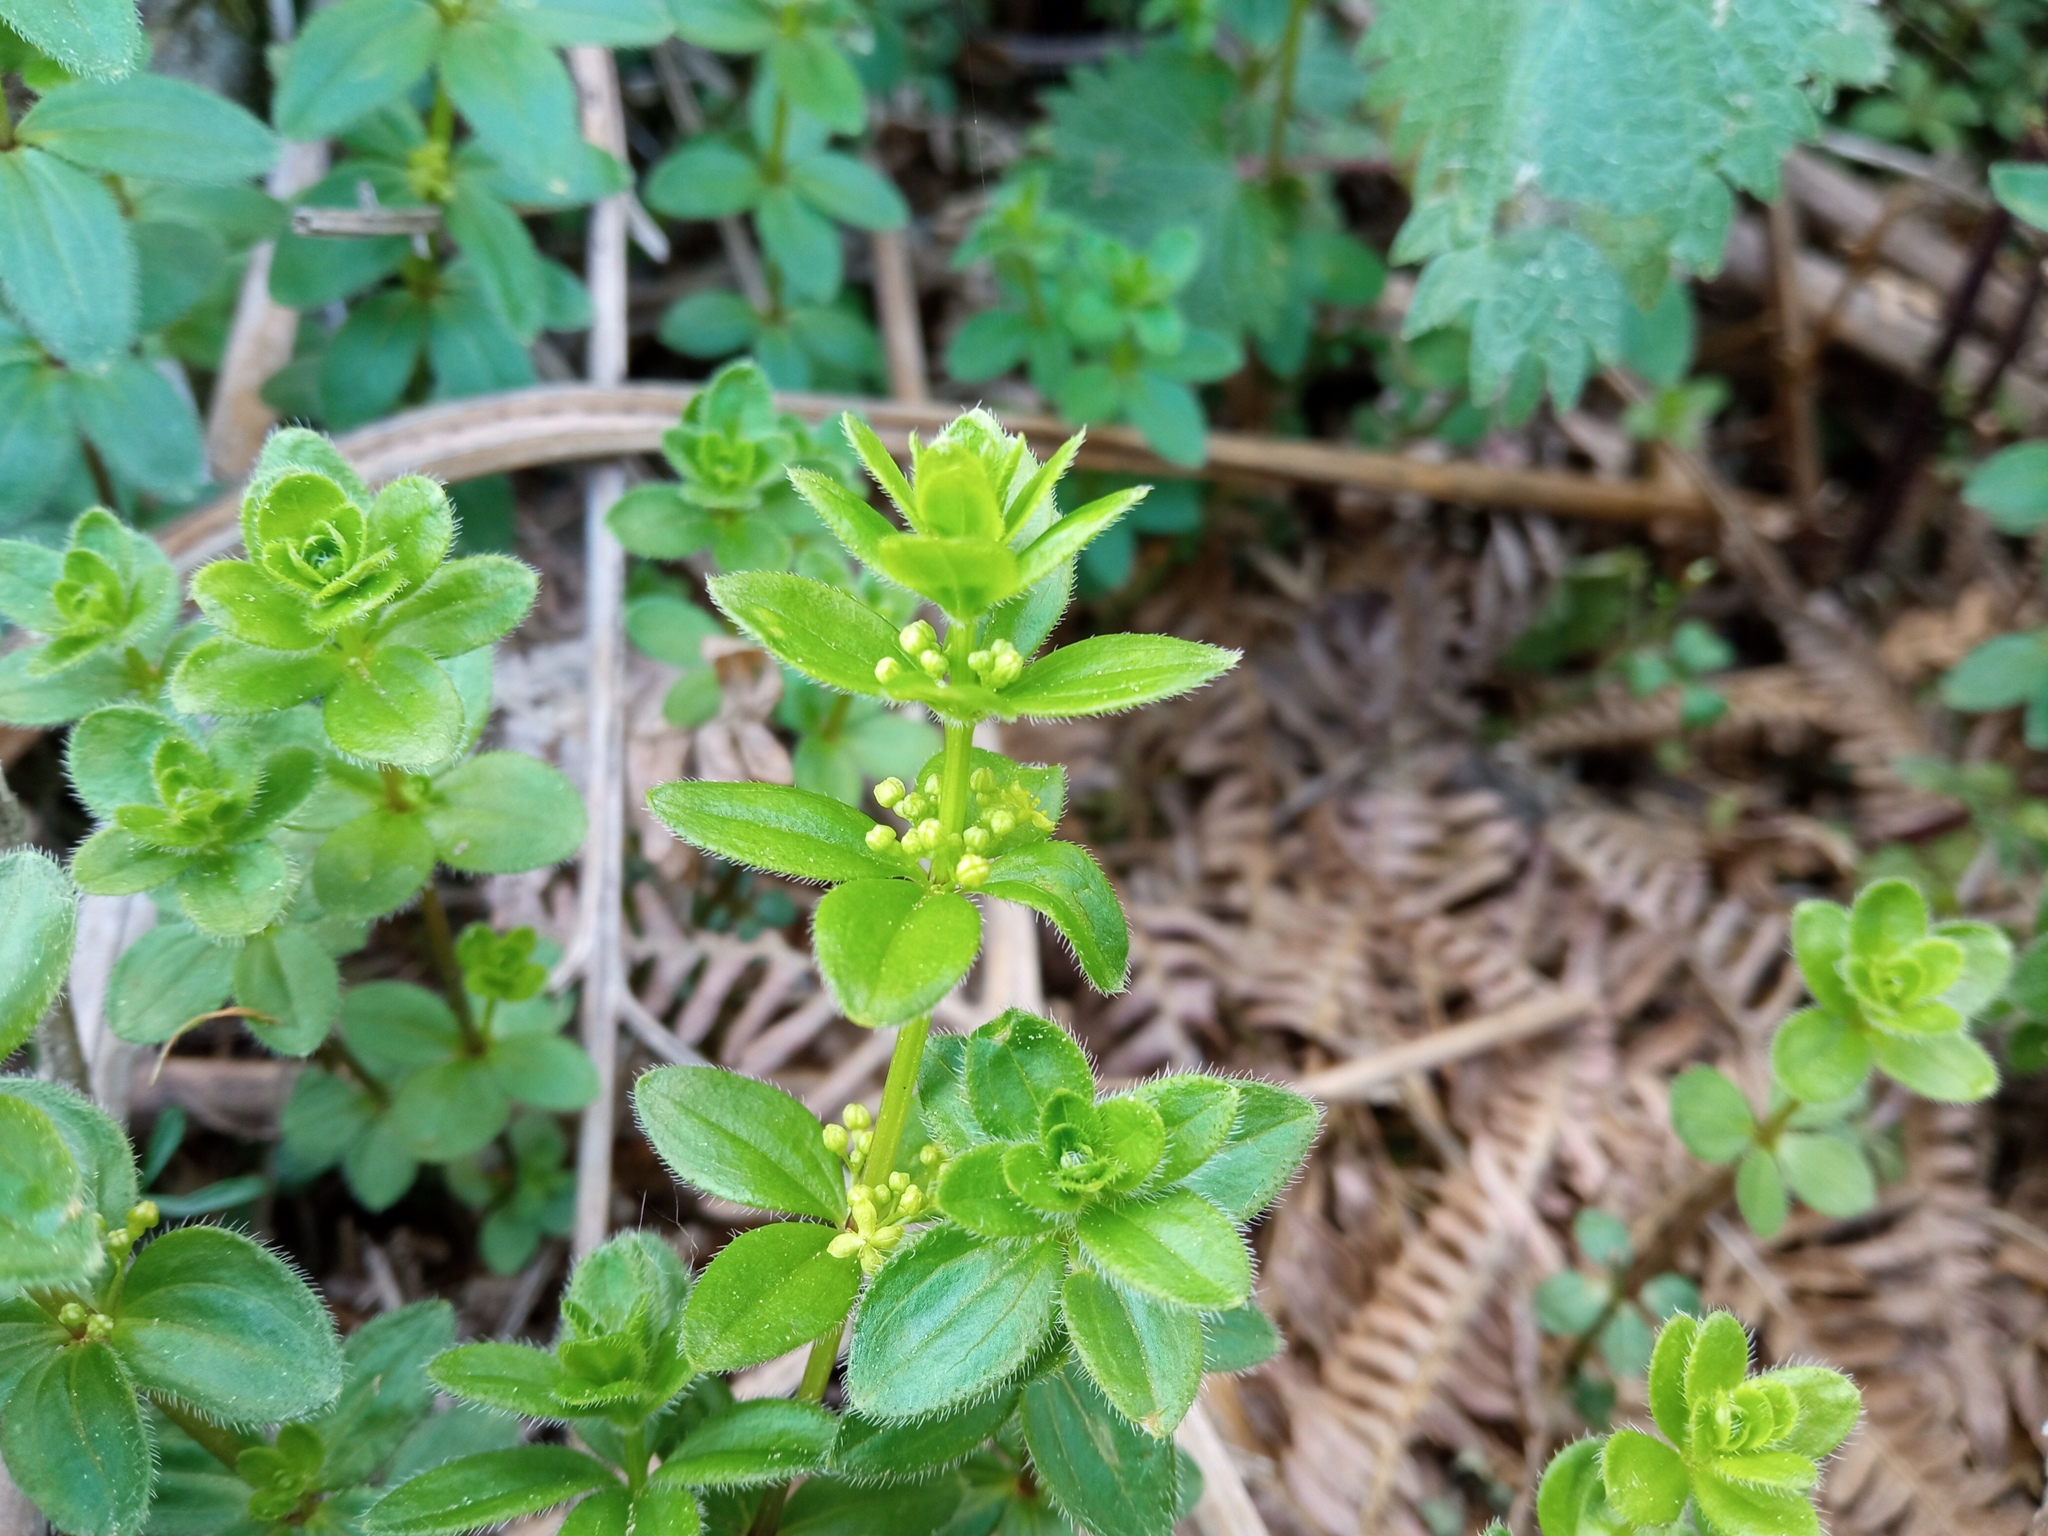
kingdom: Plantae
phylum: Tracheophyta
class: Magnoliopsida
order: Gentianales
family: Rubiaceae
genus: Cruciata
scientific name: Cruciata glabra
